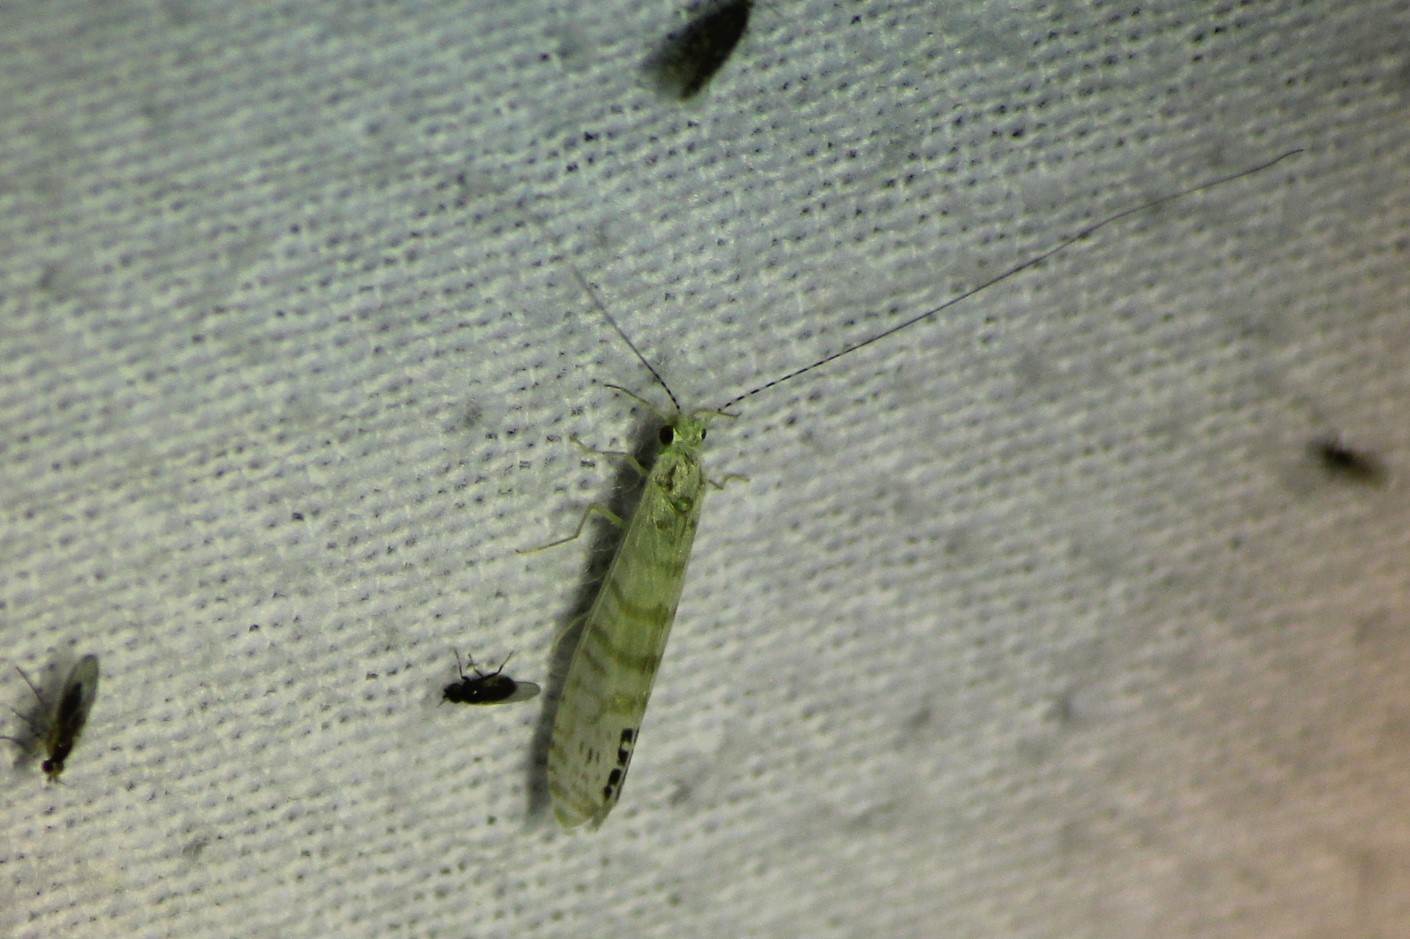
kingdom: Animalia
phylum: Arthropoda
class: Insecta
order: Trichoptera
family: Leptoceridae
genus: Nectopsyche
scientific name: Nectopsyche exquisita
